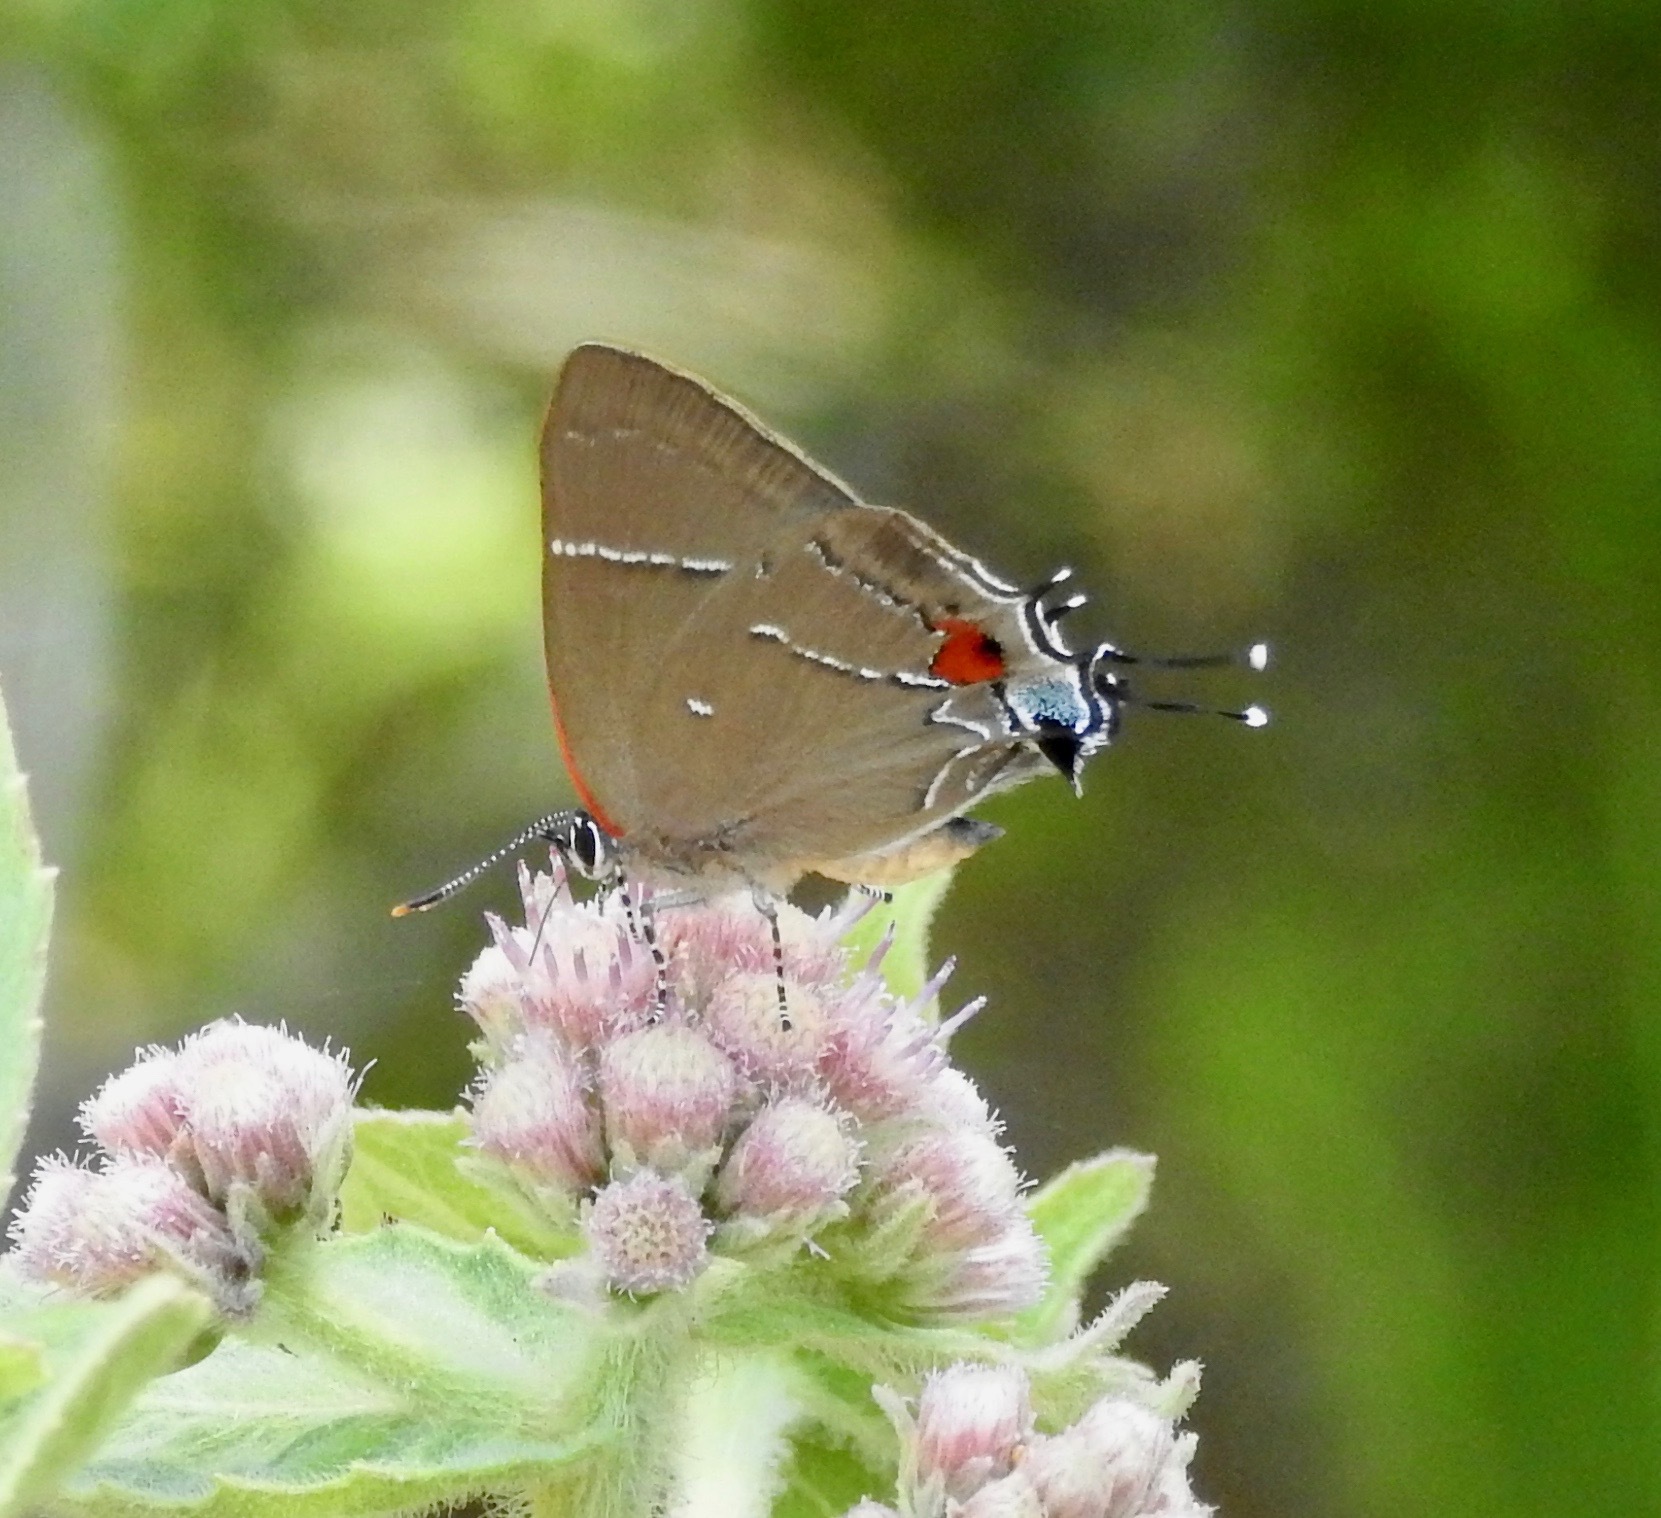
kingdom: Animalia
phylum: Arthropoda
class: Insecta
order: Lepidoptera
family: Lycaenidae
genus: Parrhasius
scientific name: Parrhasius m-album
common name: White m hairstreak
